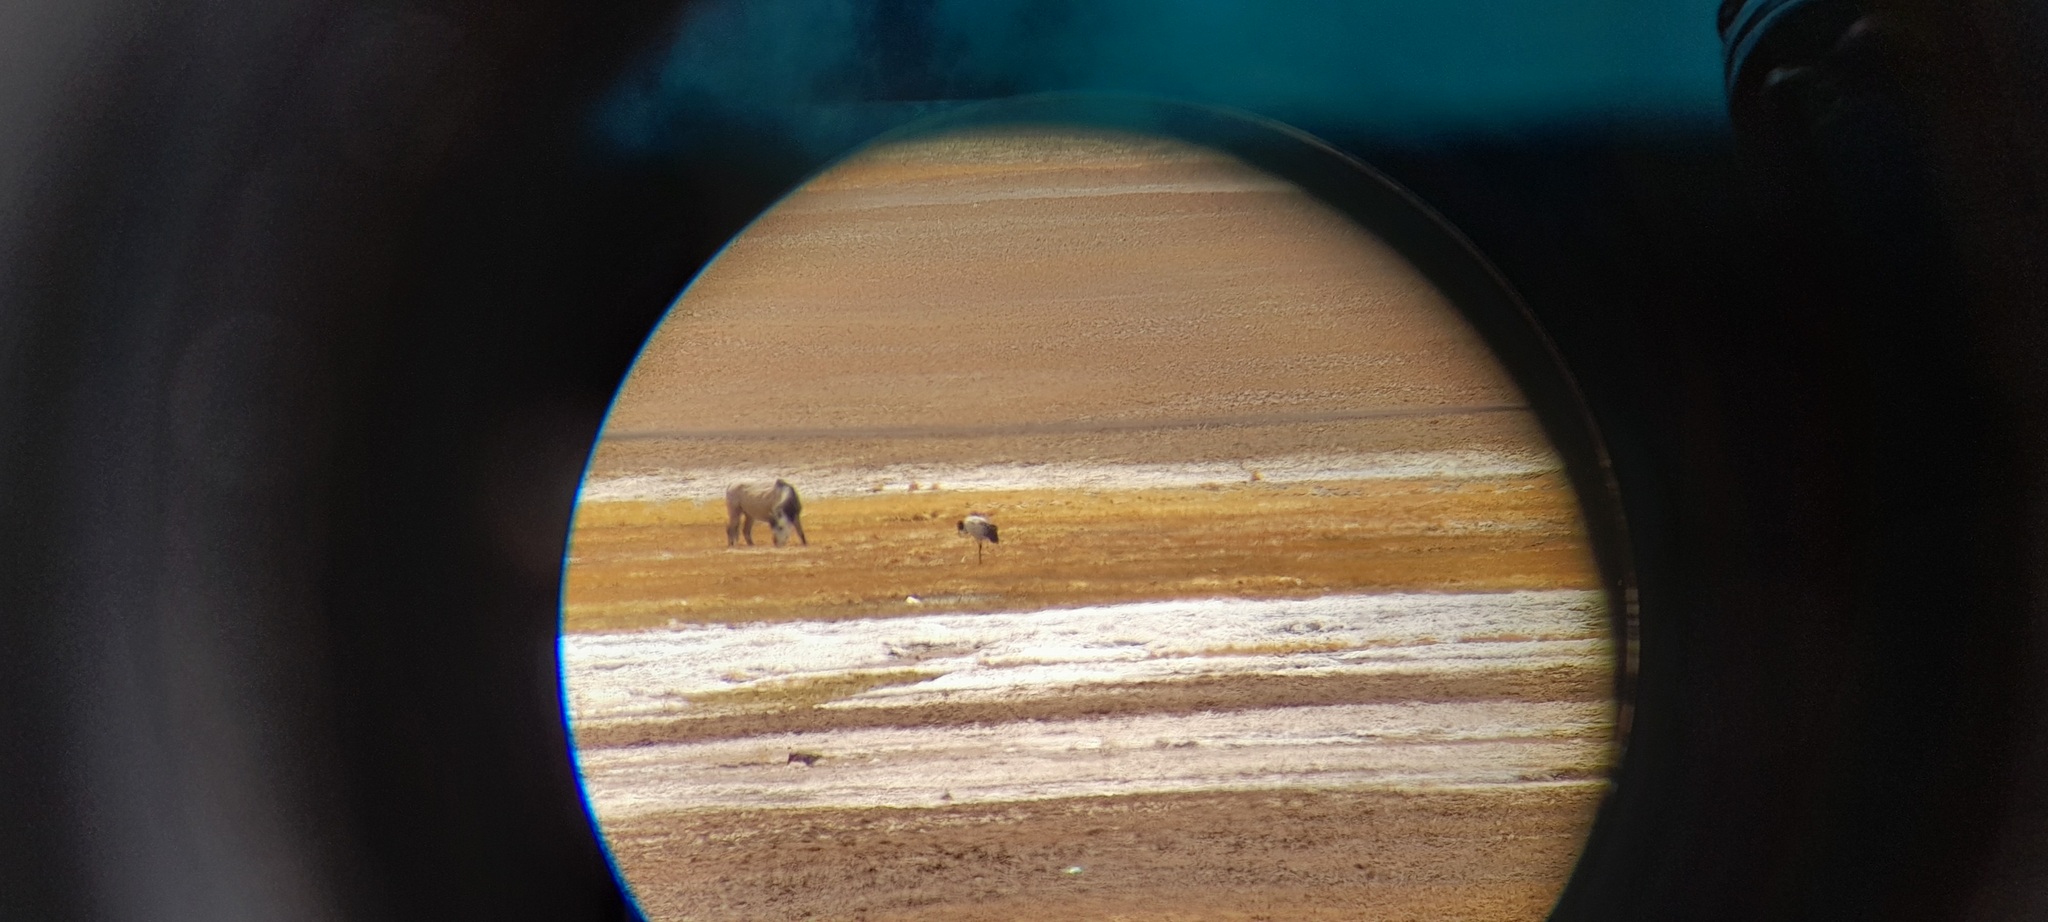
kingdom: Animalia
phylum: Chordata
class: Aves
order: Gruiformes
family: Gruidae
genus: Grus
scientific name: Grus nigricollis
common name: Black-necked crane
